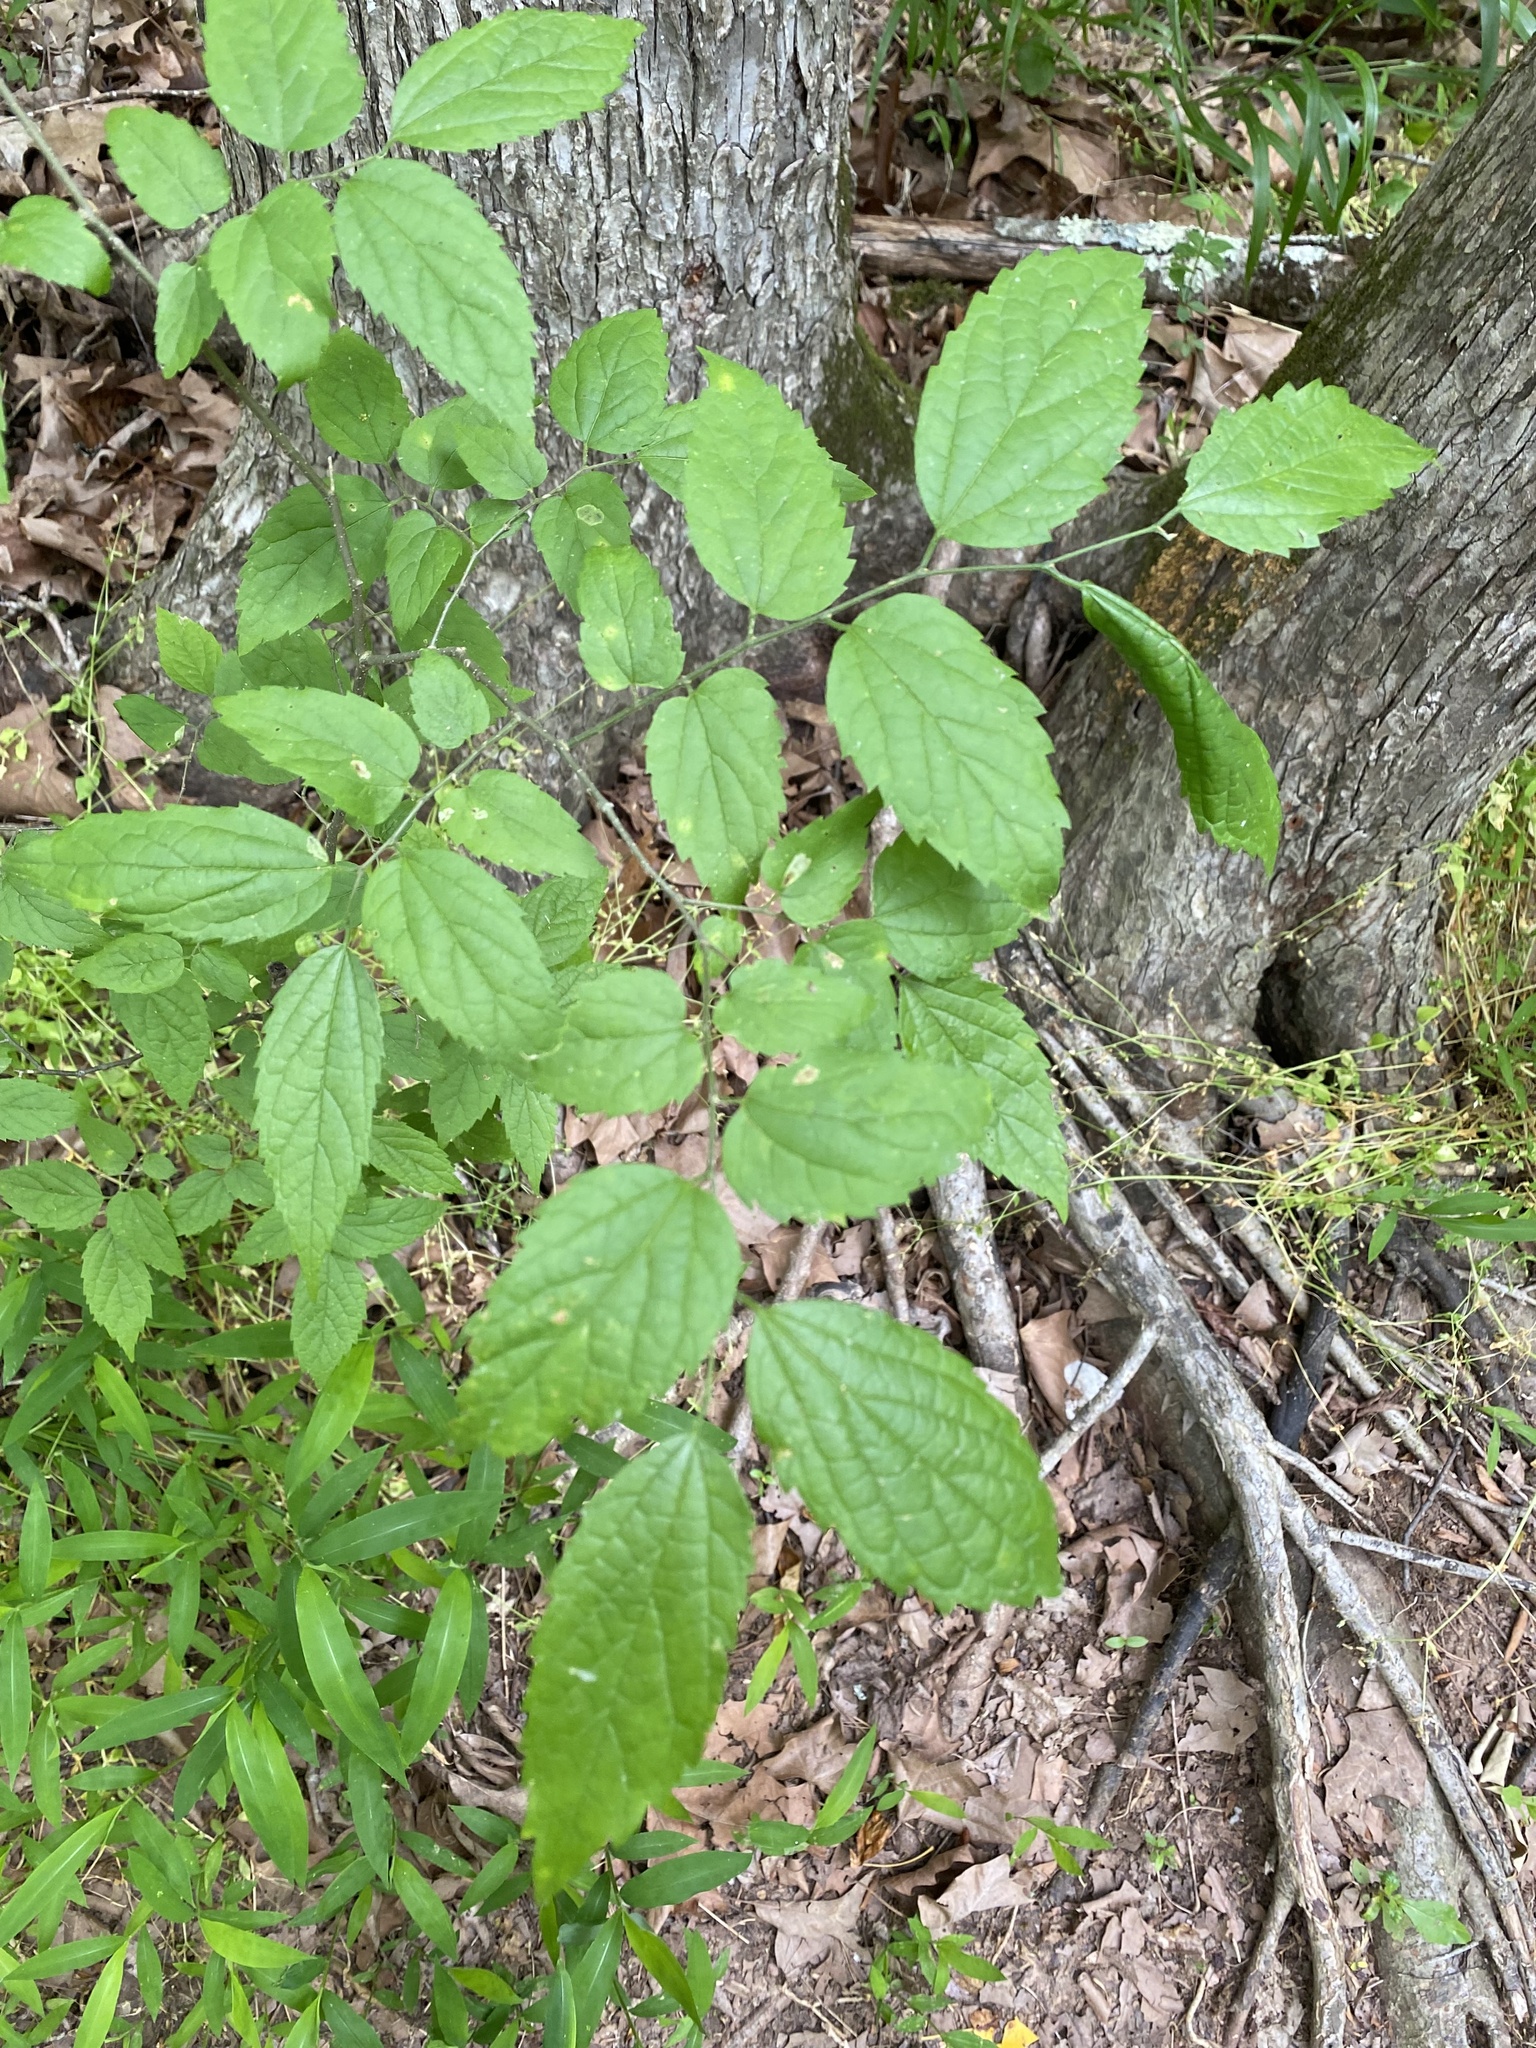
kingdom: Plantae
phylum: Tracheophyta
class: Magnoliopsida
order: Rosales
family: Cannabaceae
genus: Celtis
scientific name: Celtis laevigata
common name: Sugarberry
